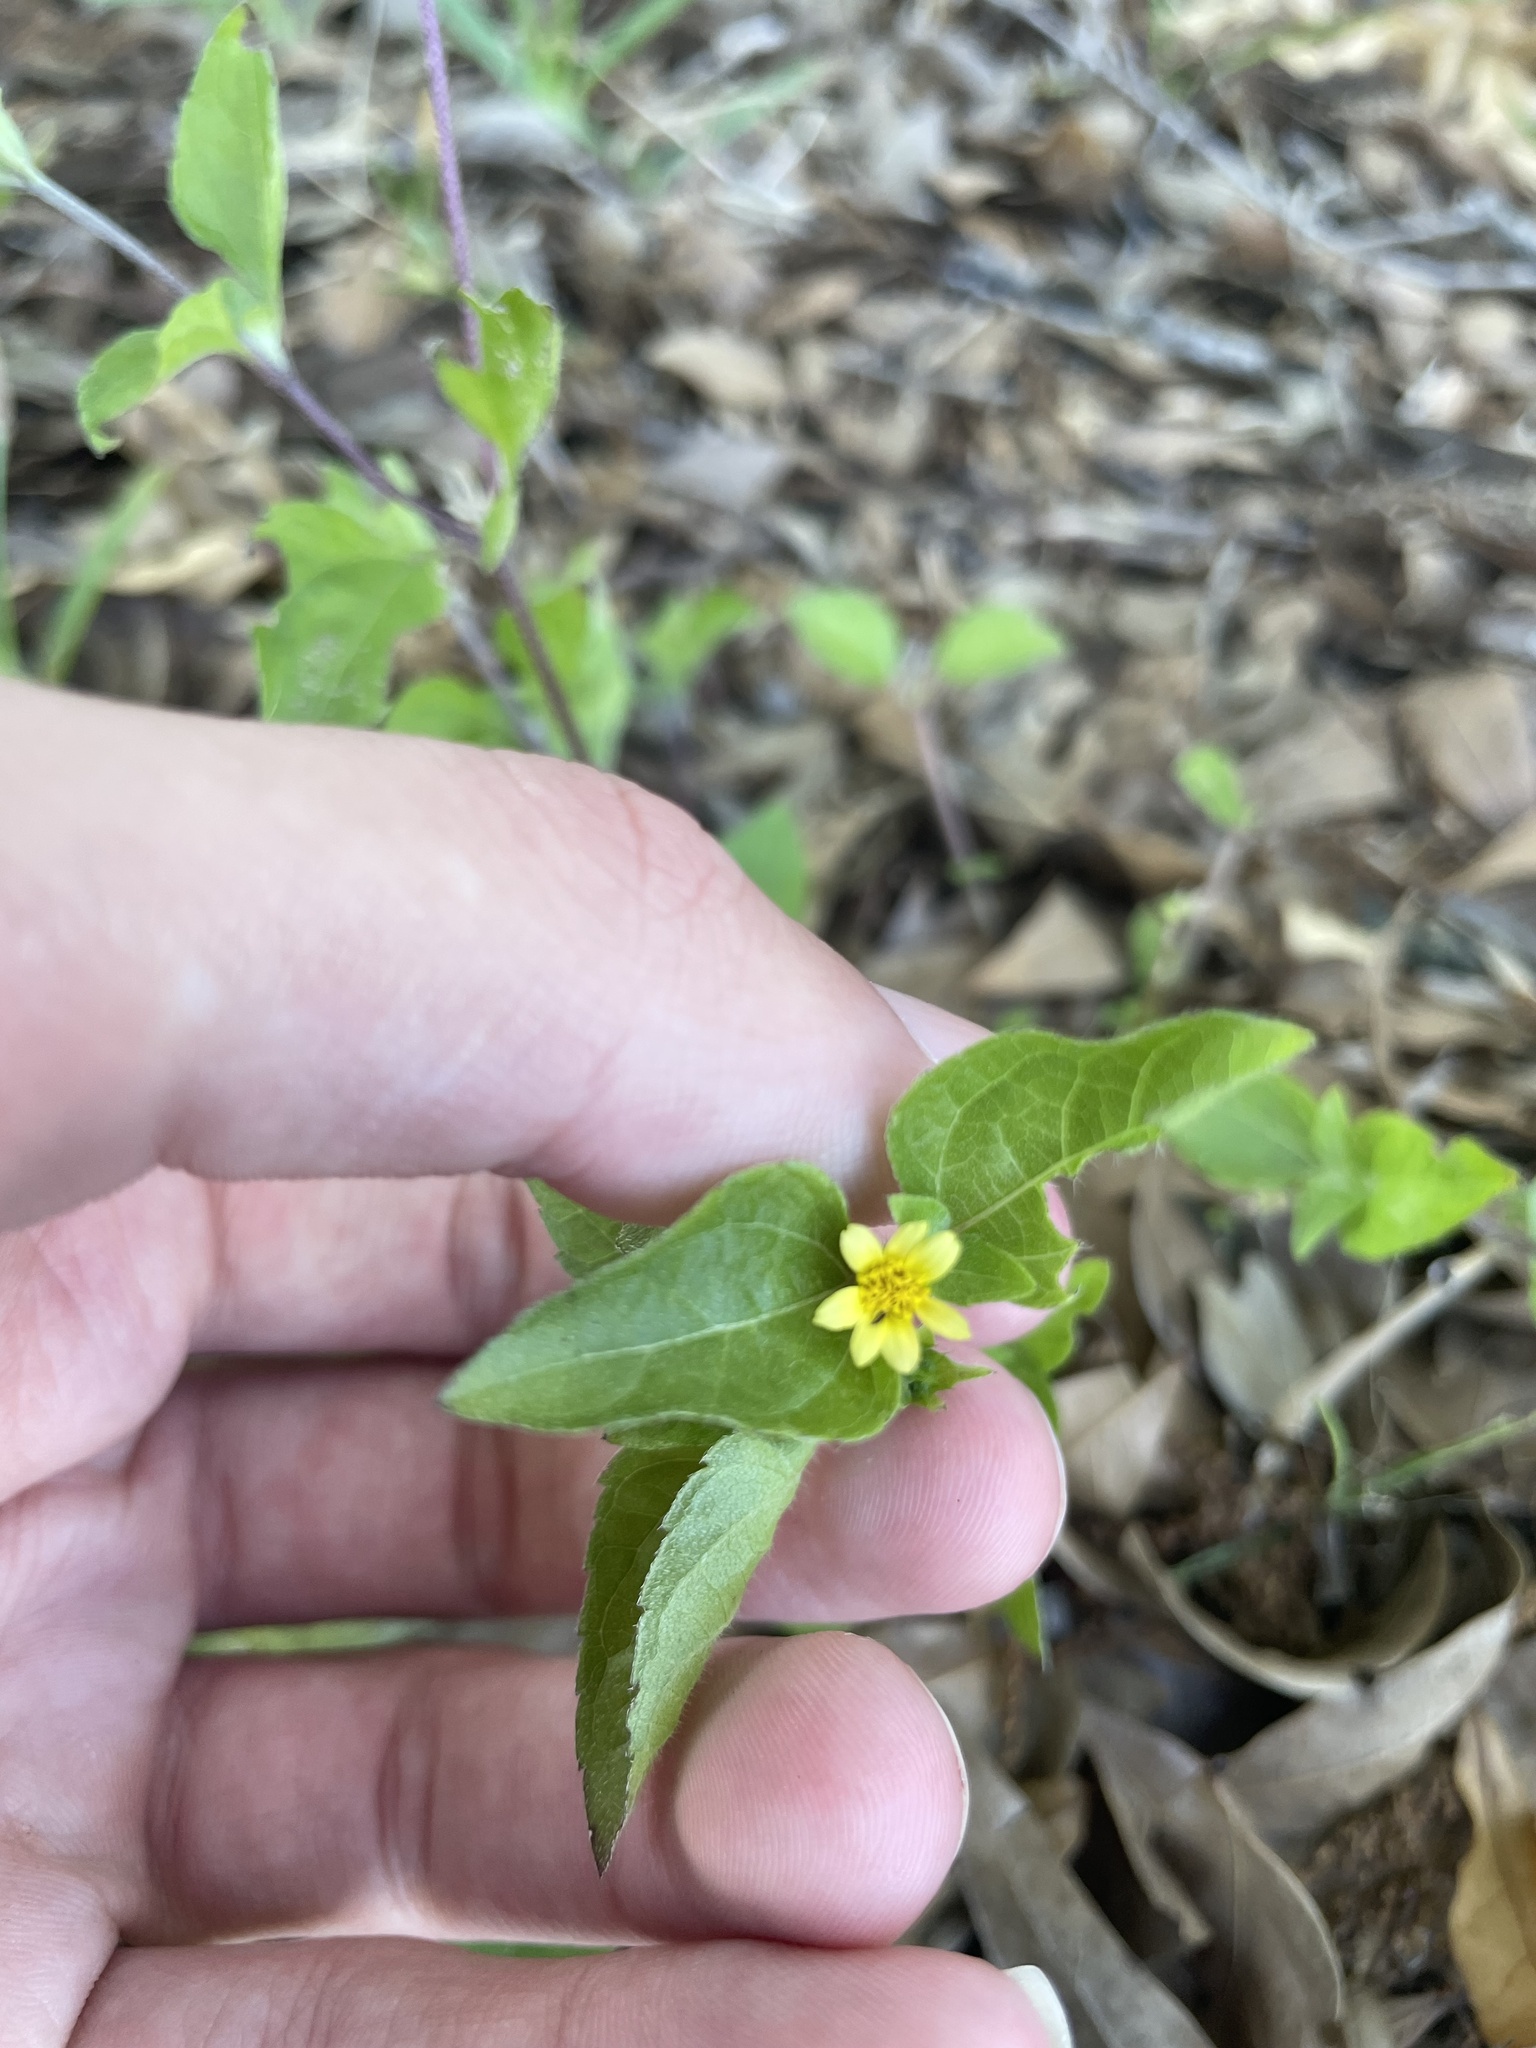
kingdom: Plantae
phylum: Tracheophyta
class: Magnoliopsida
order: Asterales
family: Asteraceae
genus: Calyptocarpus
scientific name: Calyptocarpus vialis
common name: Straggler daisy
